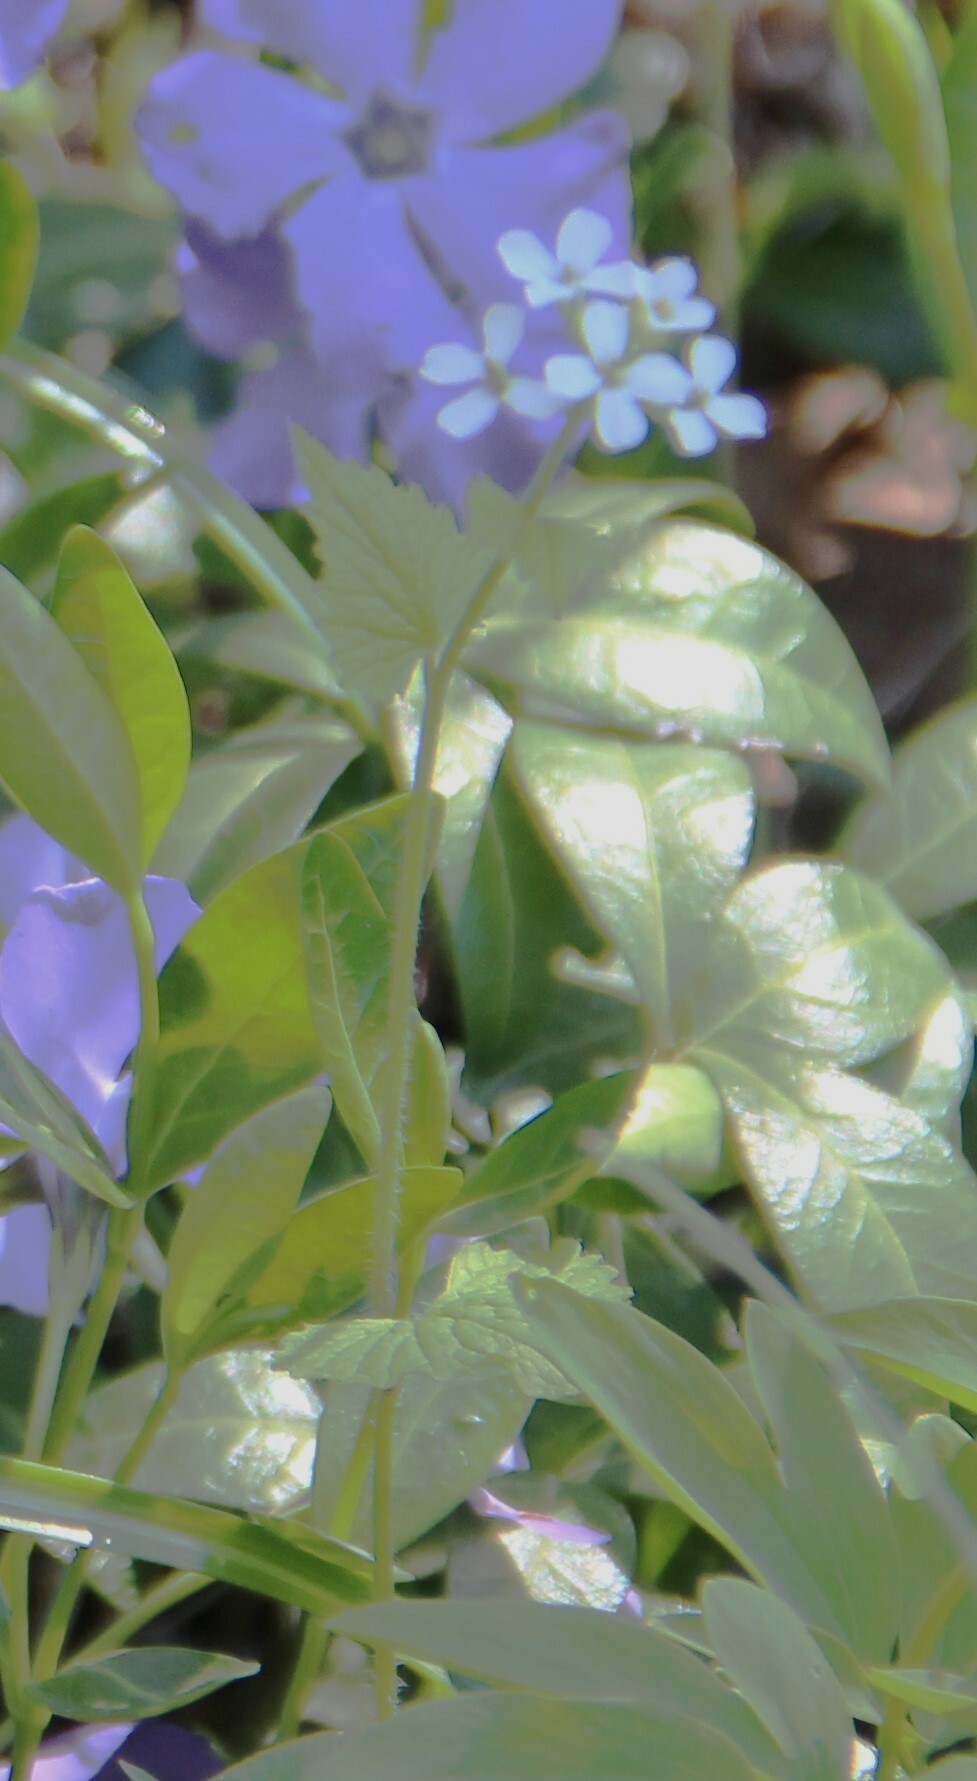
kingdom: Plantae
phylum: Tracheophyta
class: Magnoliopsida
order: Brassicales
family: Brassicaceae
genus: Alliaria
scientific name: Alliaria petiolata
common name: Garlic mustard
